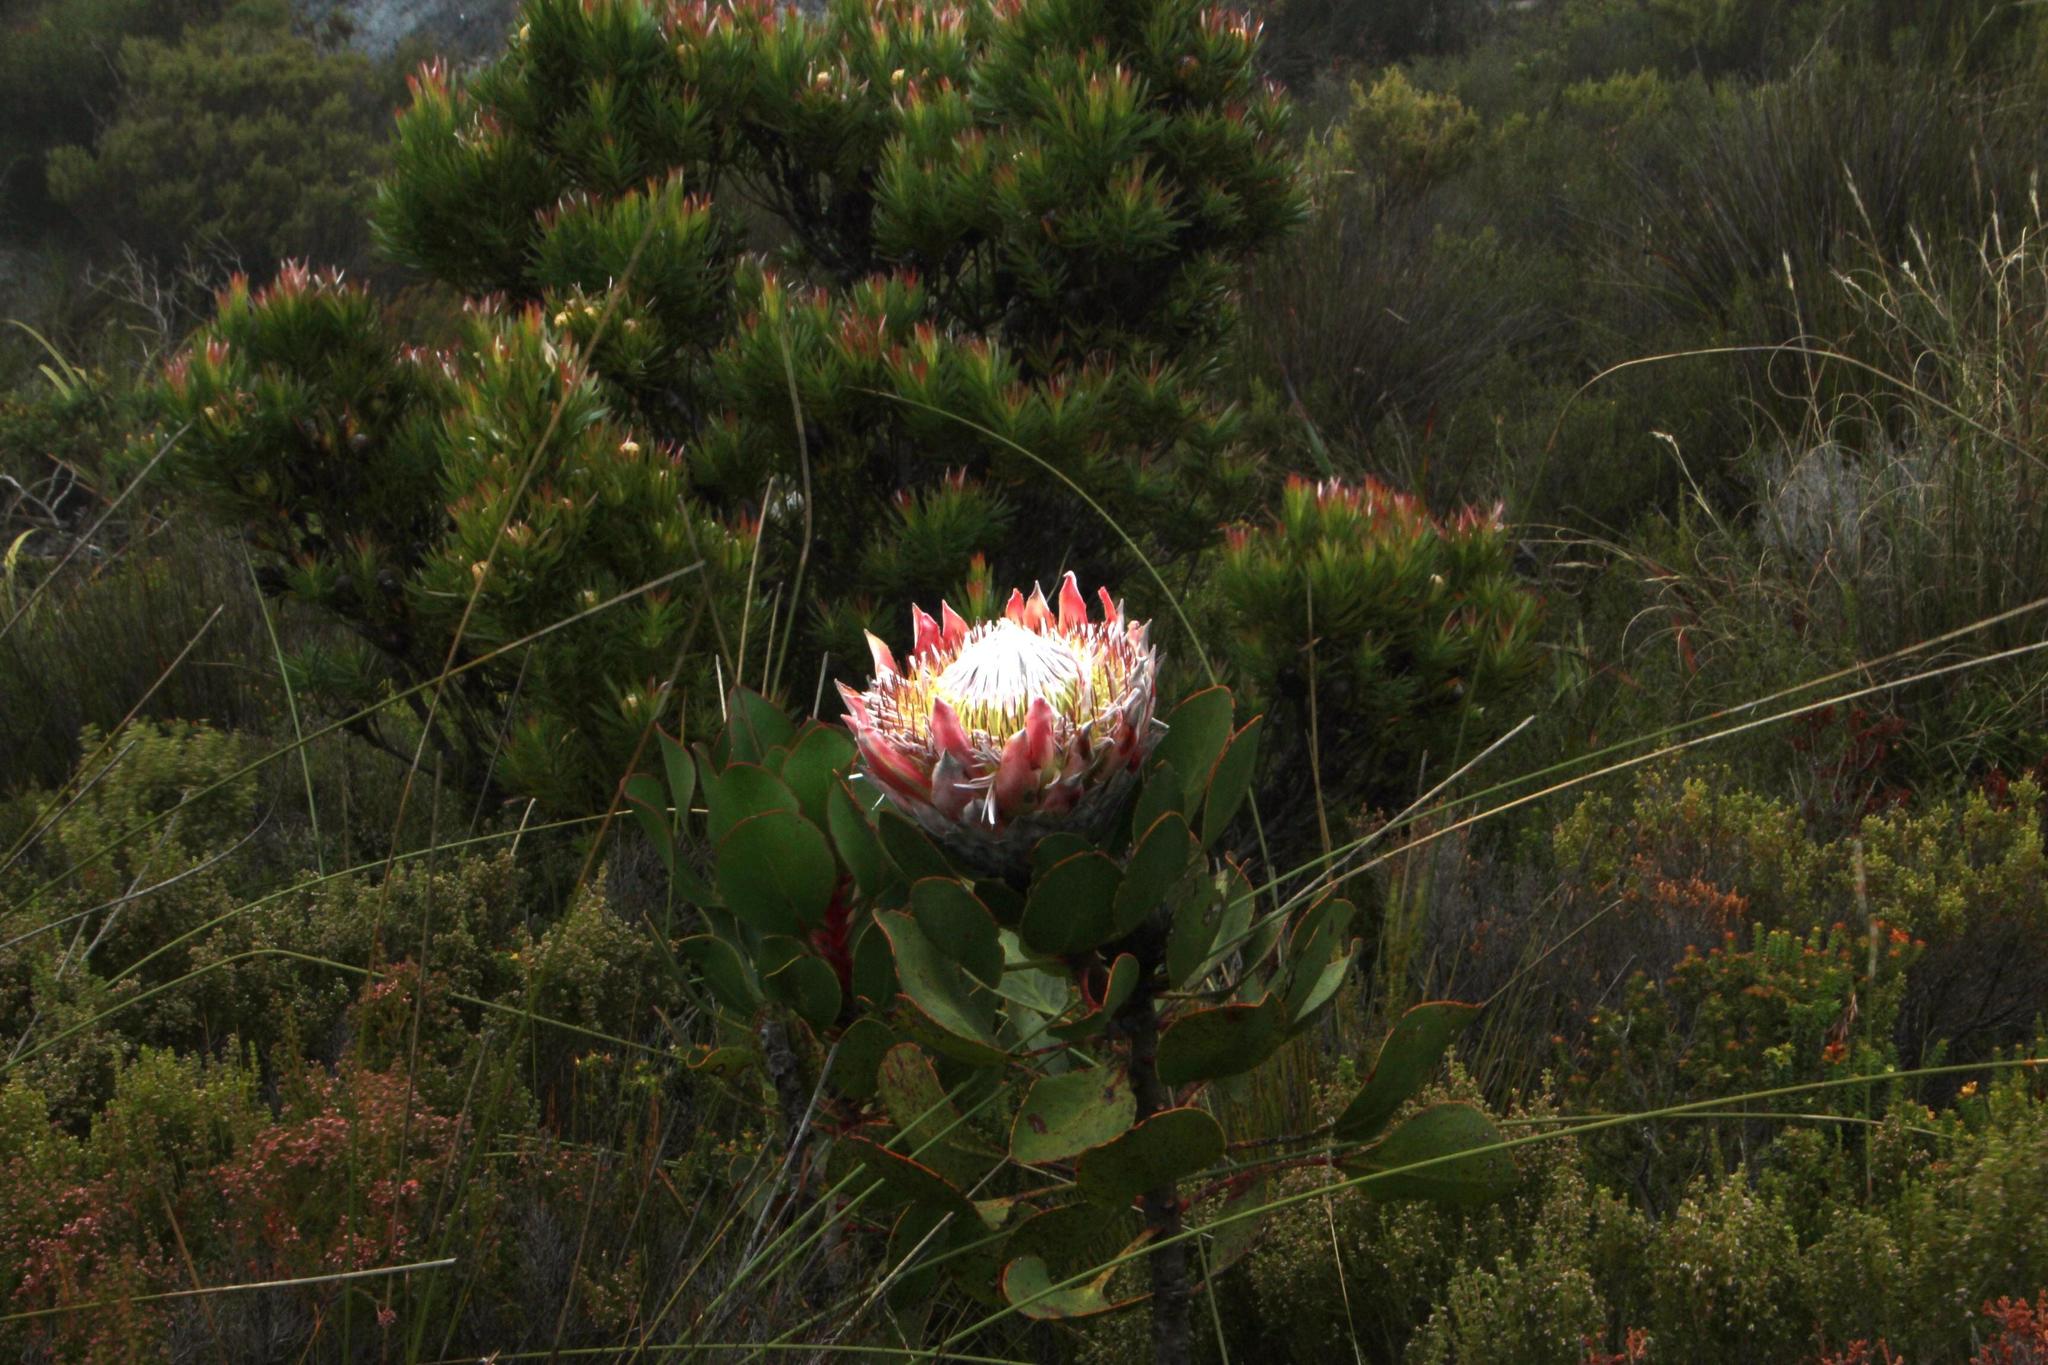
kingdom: Plantae
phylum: Tracheophyta
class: Magnoliopsida
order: Proteales
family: Proteaceae
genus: Protea
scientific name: Protea cynaroides
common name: King protea
